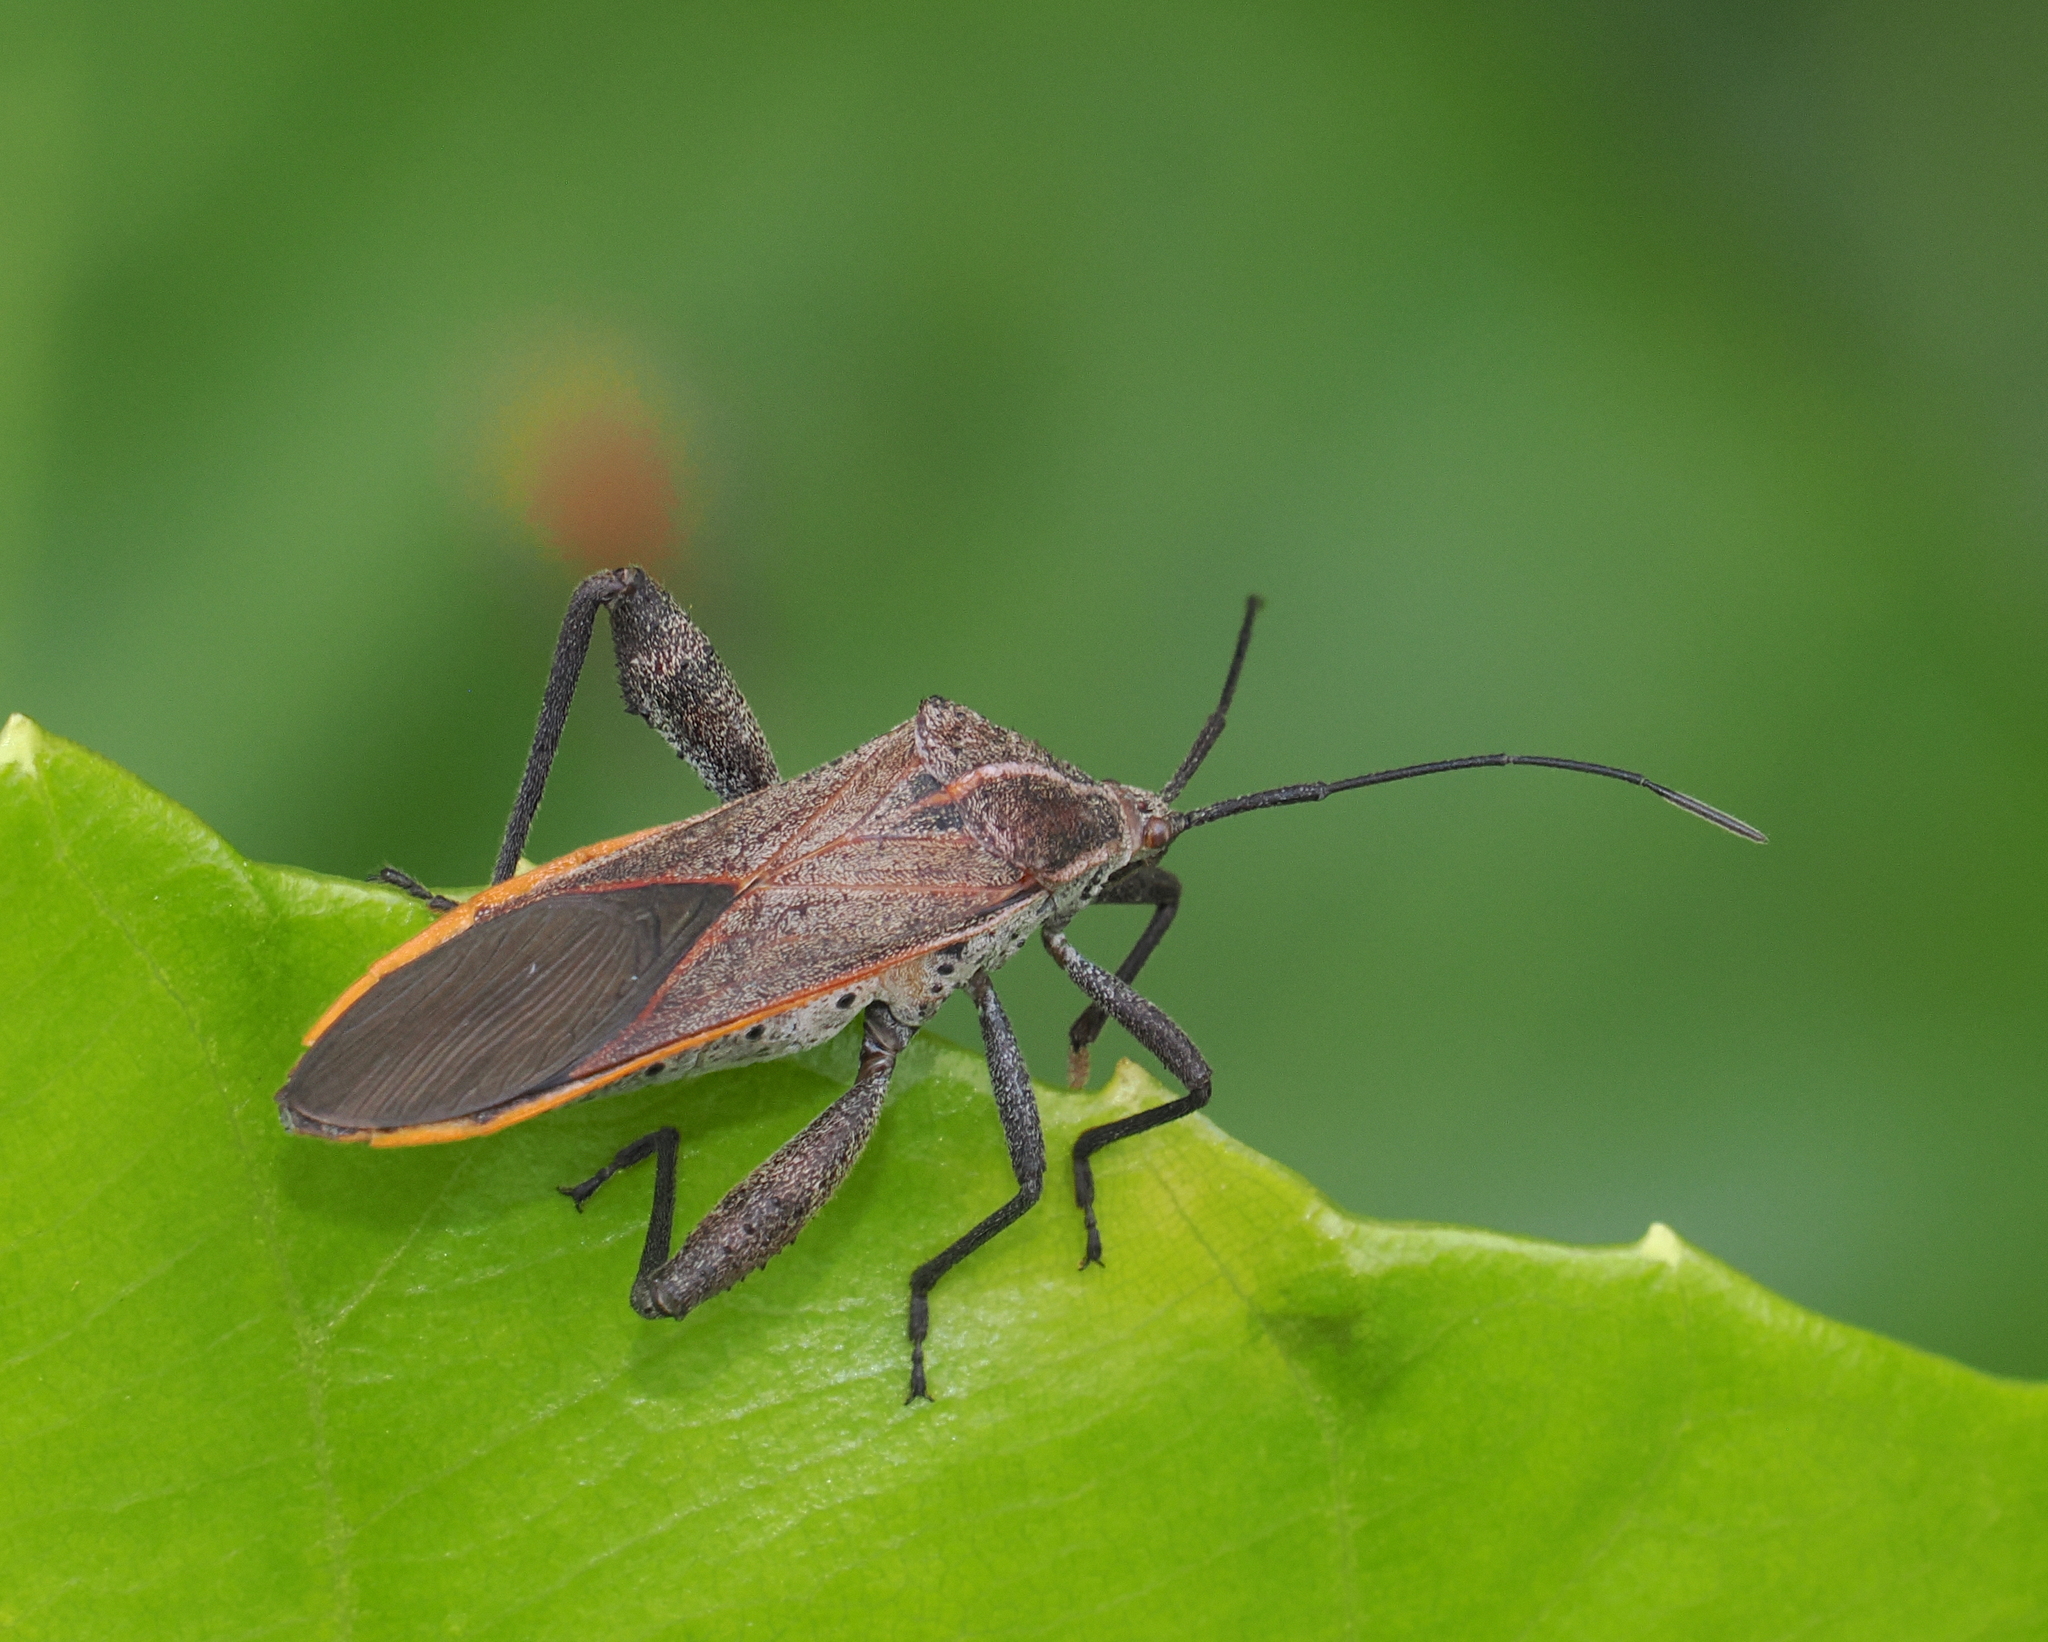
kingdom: Animalia
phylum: Arthropoda
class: Insecta
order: Hemiptera
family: Coreidae
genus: Physomerus
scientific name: Physomerus grossipes
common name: Squash bug
